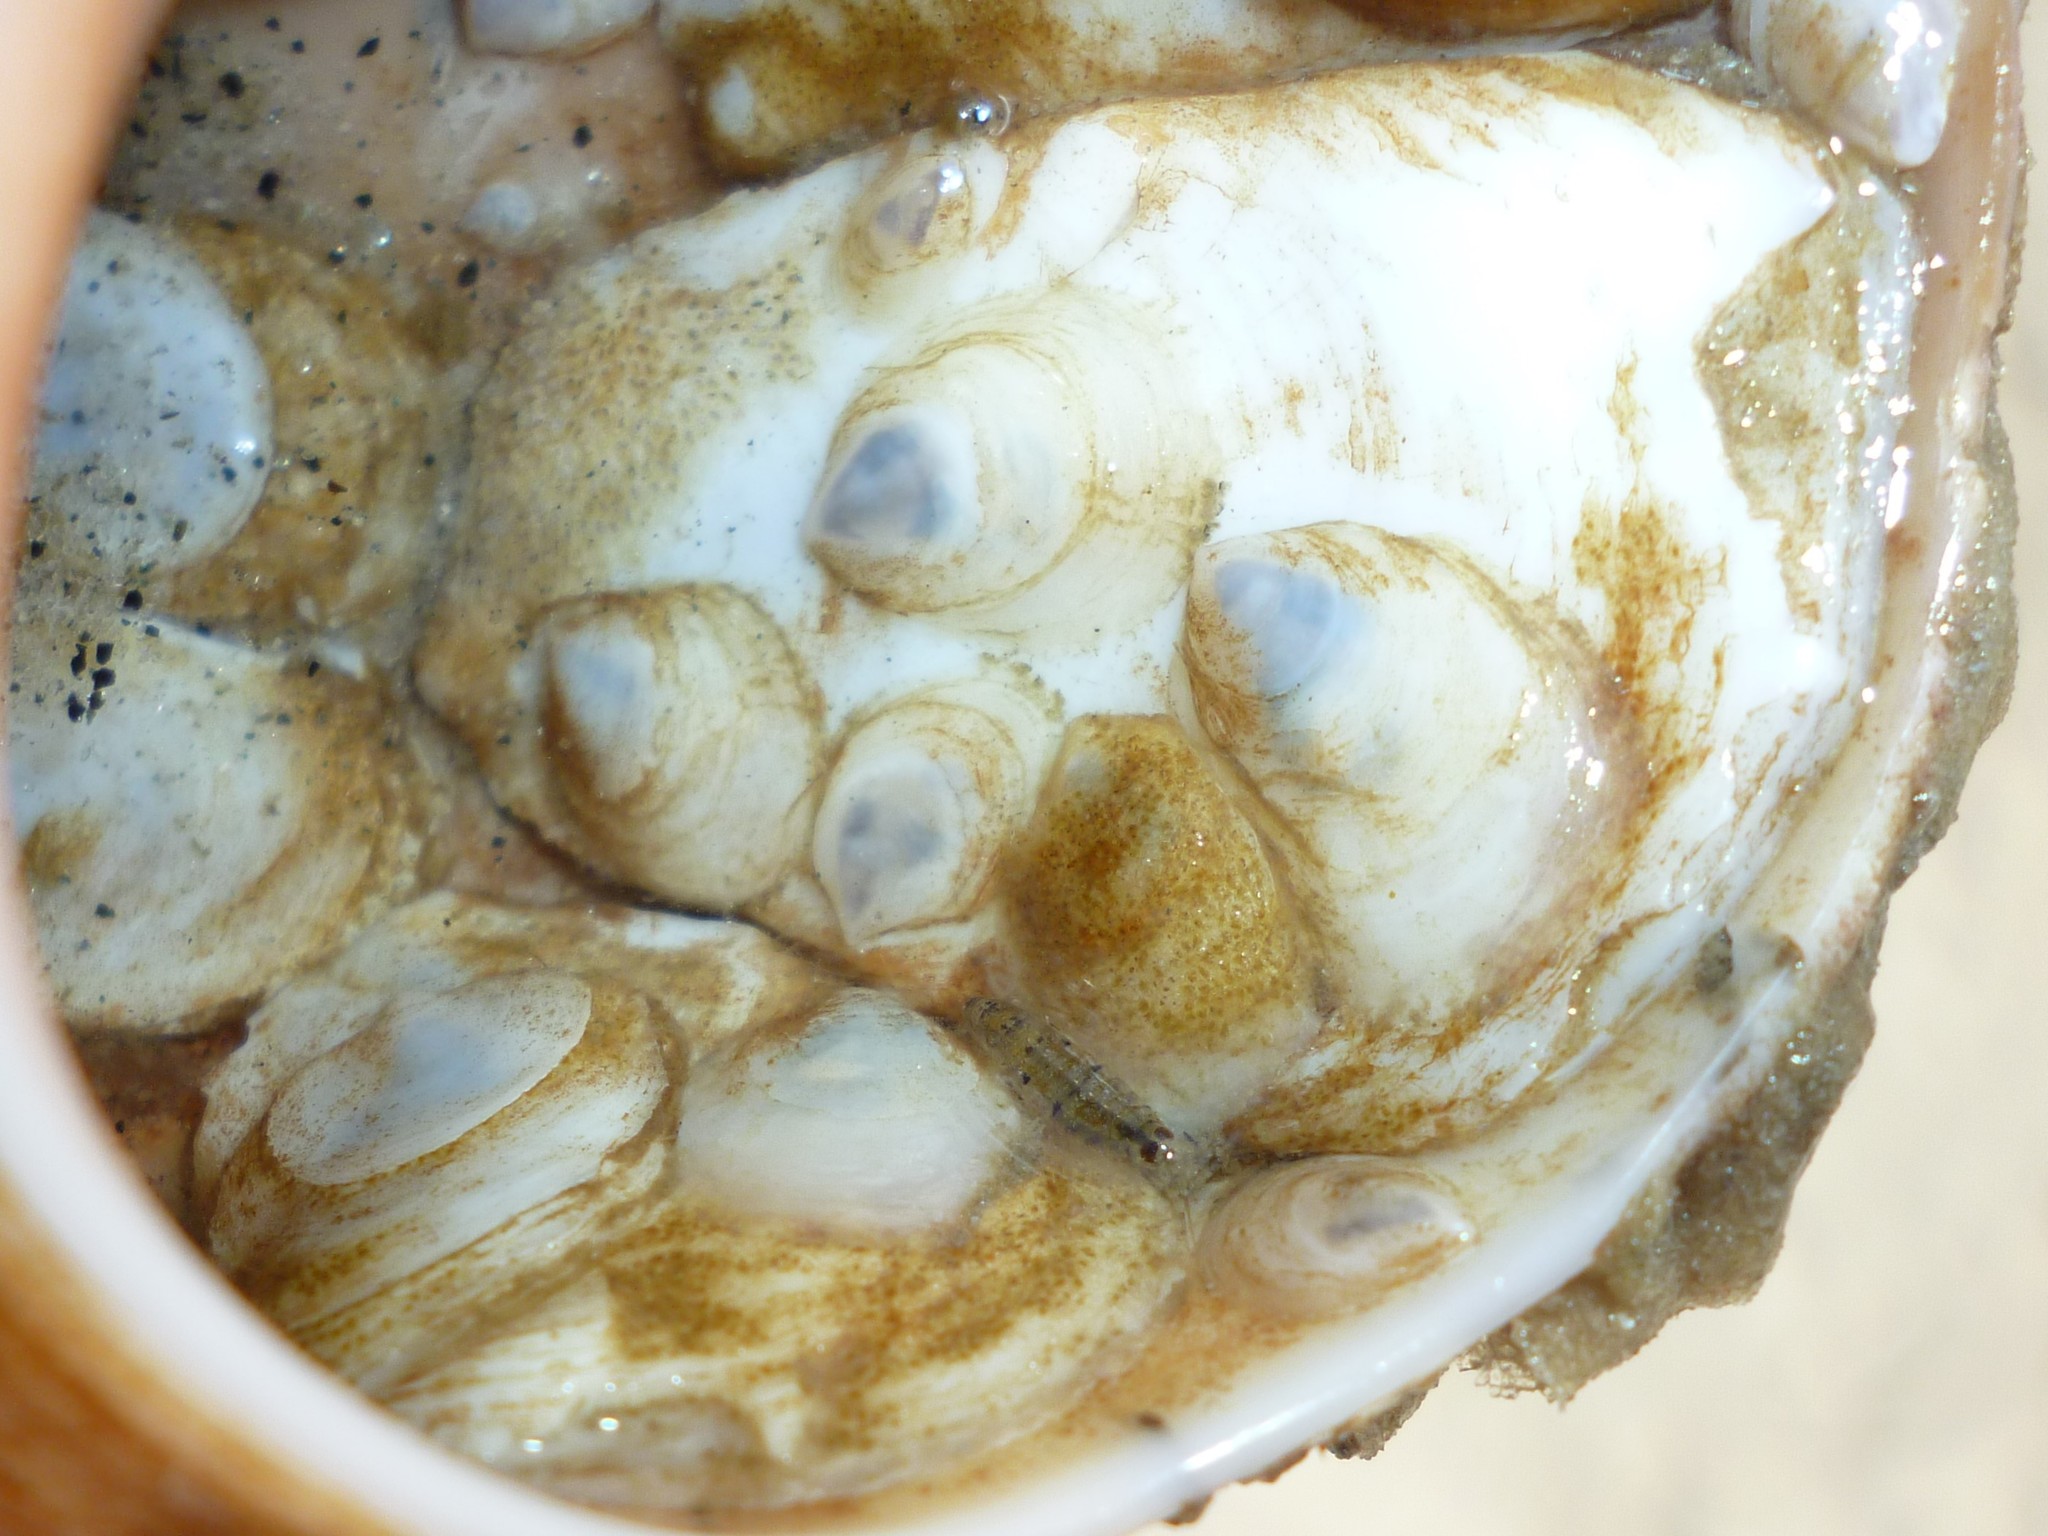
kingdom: Animalia
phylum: Mollusca
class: Gastropoda
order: Littorinimorpha
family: Calyptraeidae
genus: Crepidula
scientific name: Crepidula plana
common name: Eastern white slippersnail
